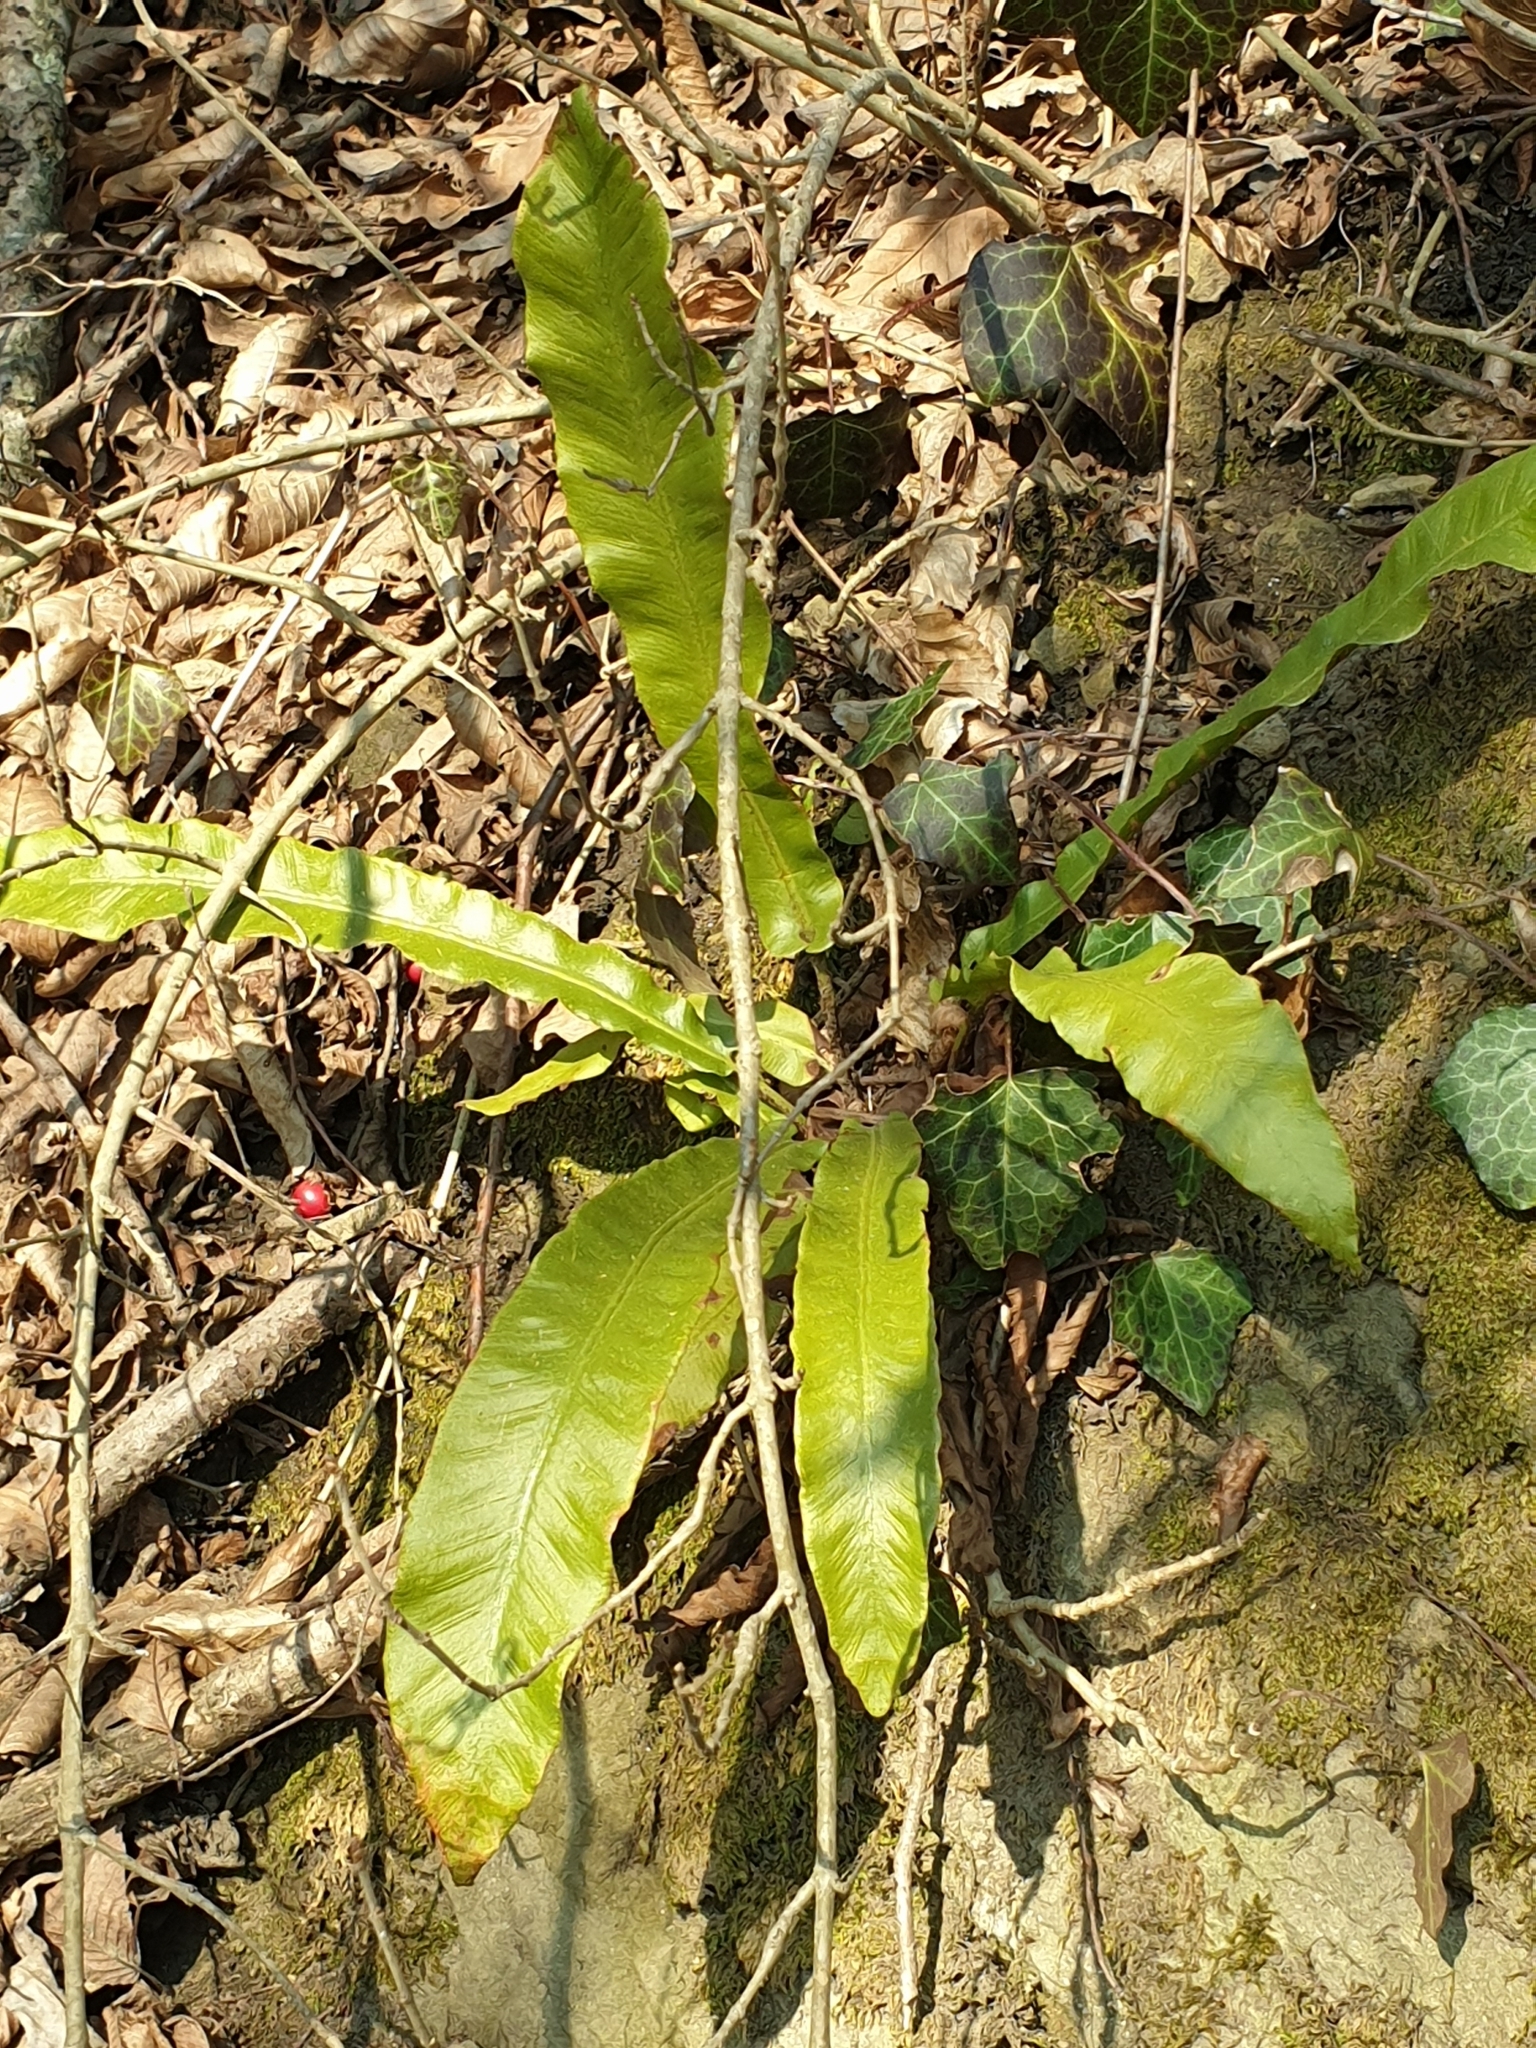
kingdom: Plantae
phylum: Tracheophyta
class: Polypodiopsida
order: Polypodiales
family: Aspleniaceae
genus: Asplenium
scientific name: Asplenium scolopendrium
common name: Hart's-tongue fern
